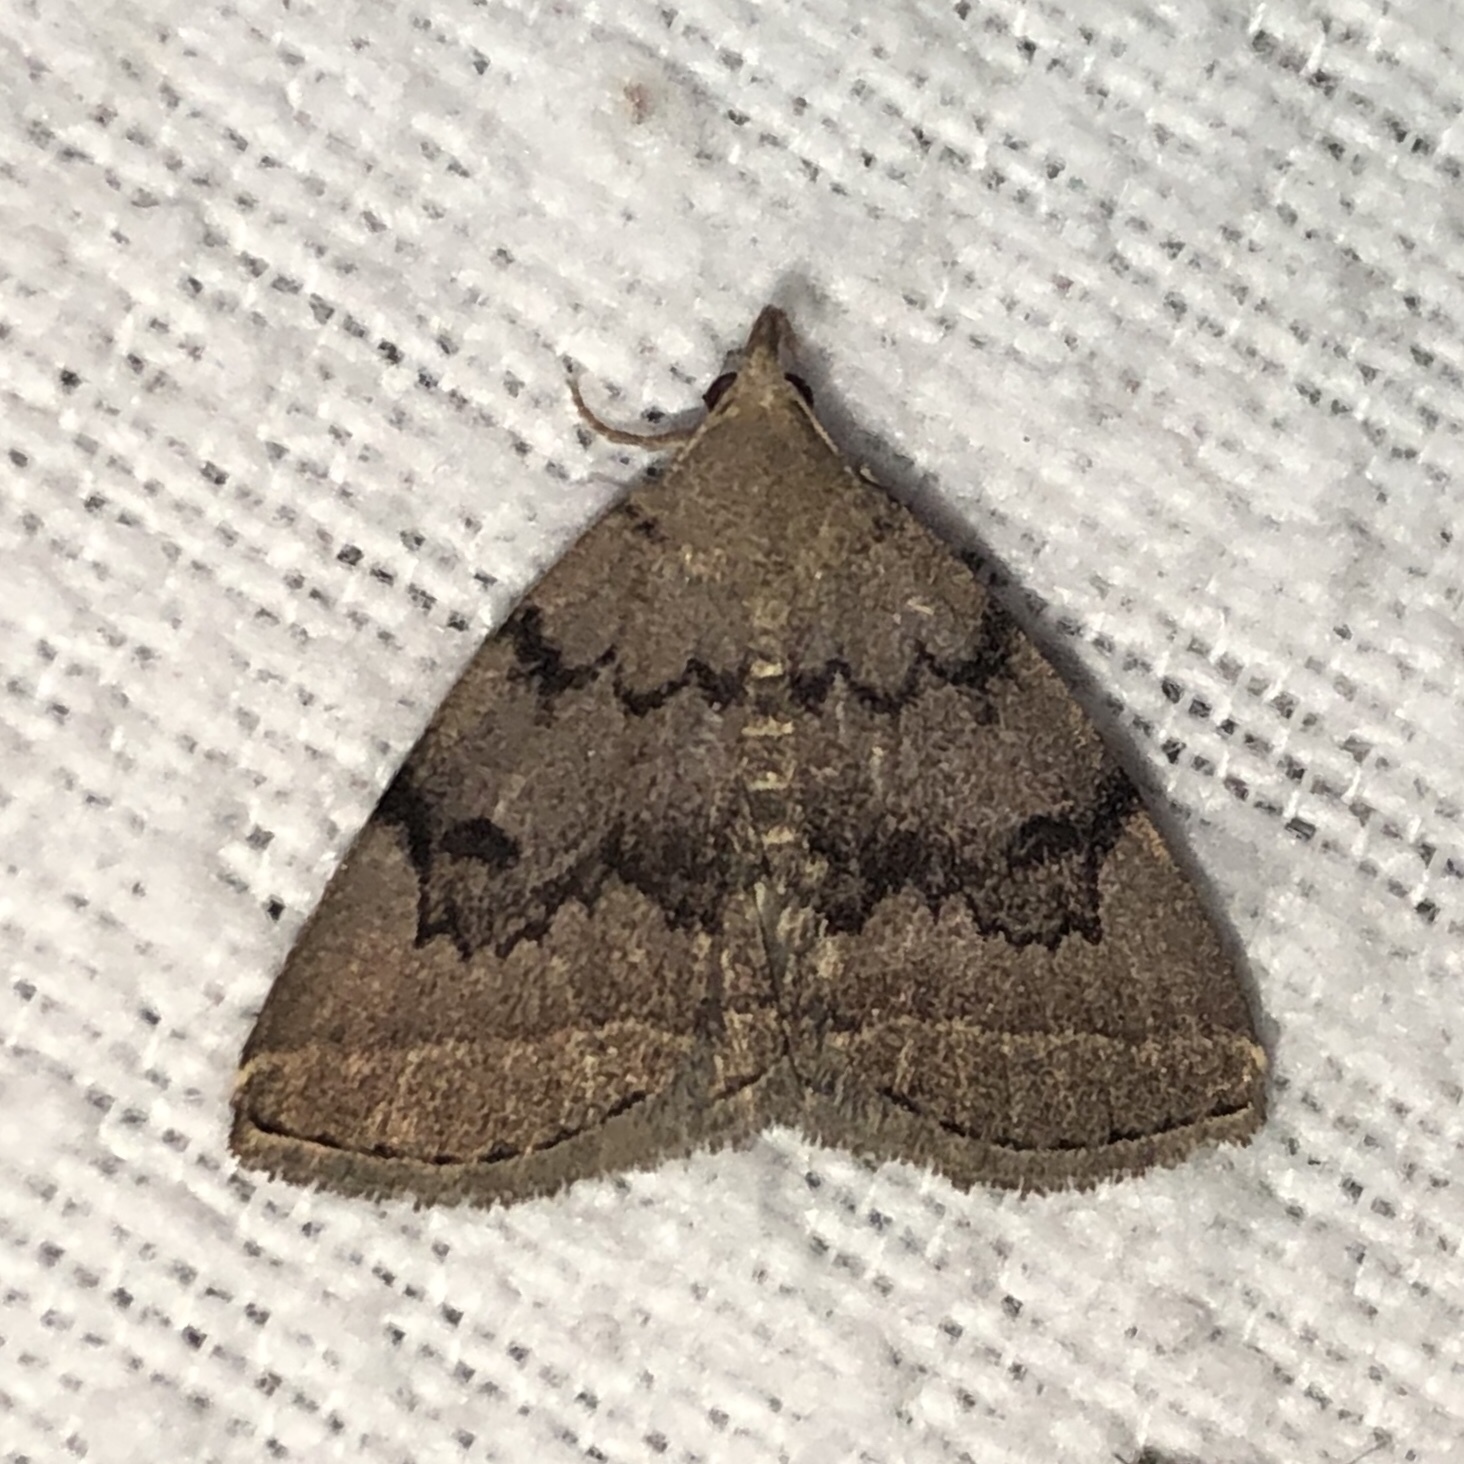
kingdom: Animalia
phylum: Arthropoda
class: Insecta
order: Lepidoptera
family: Erebidae
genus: Zanclognatha
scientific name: Zanclognatha dentata
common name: Toothed fan-foot
